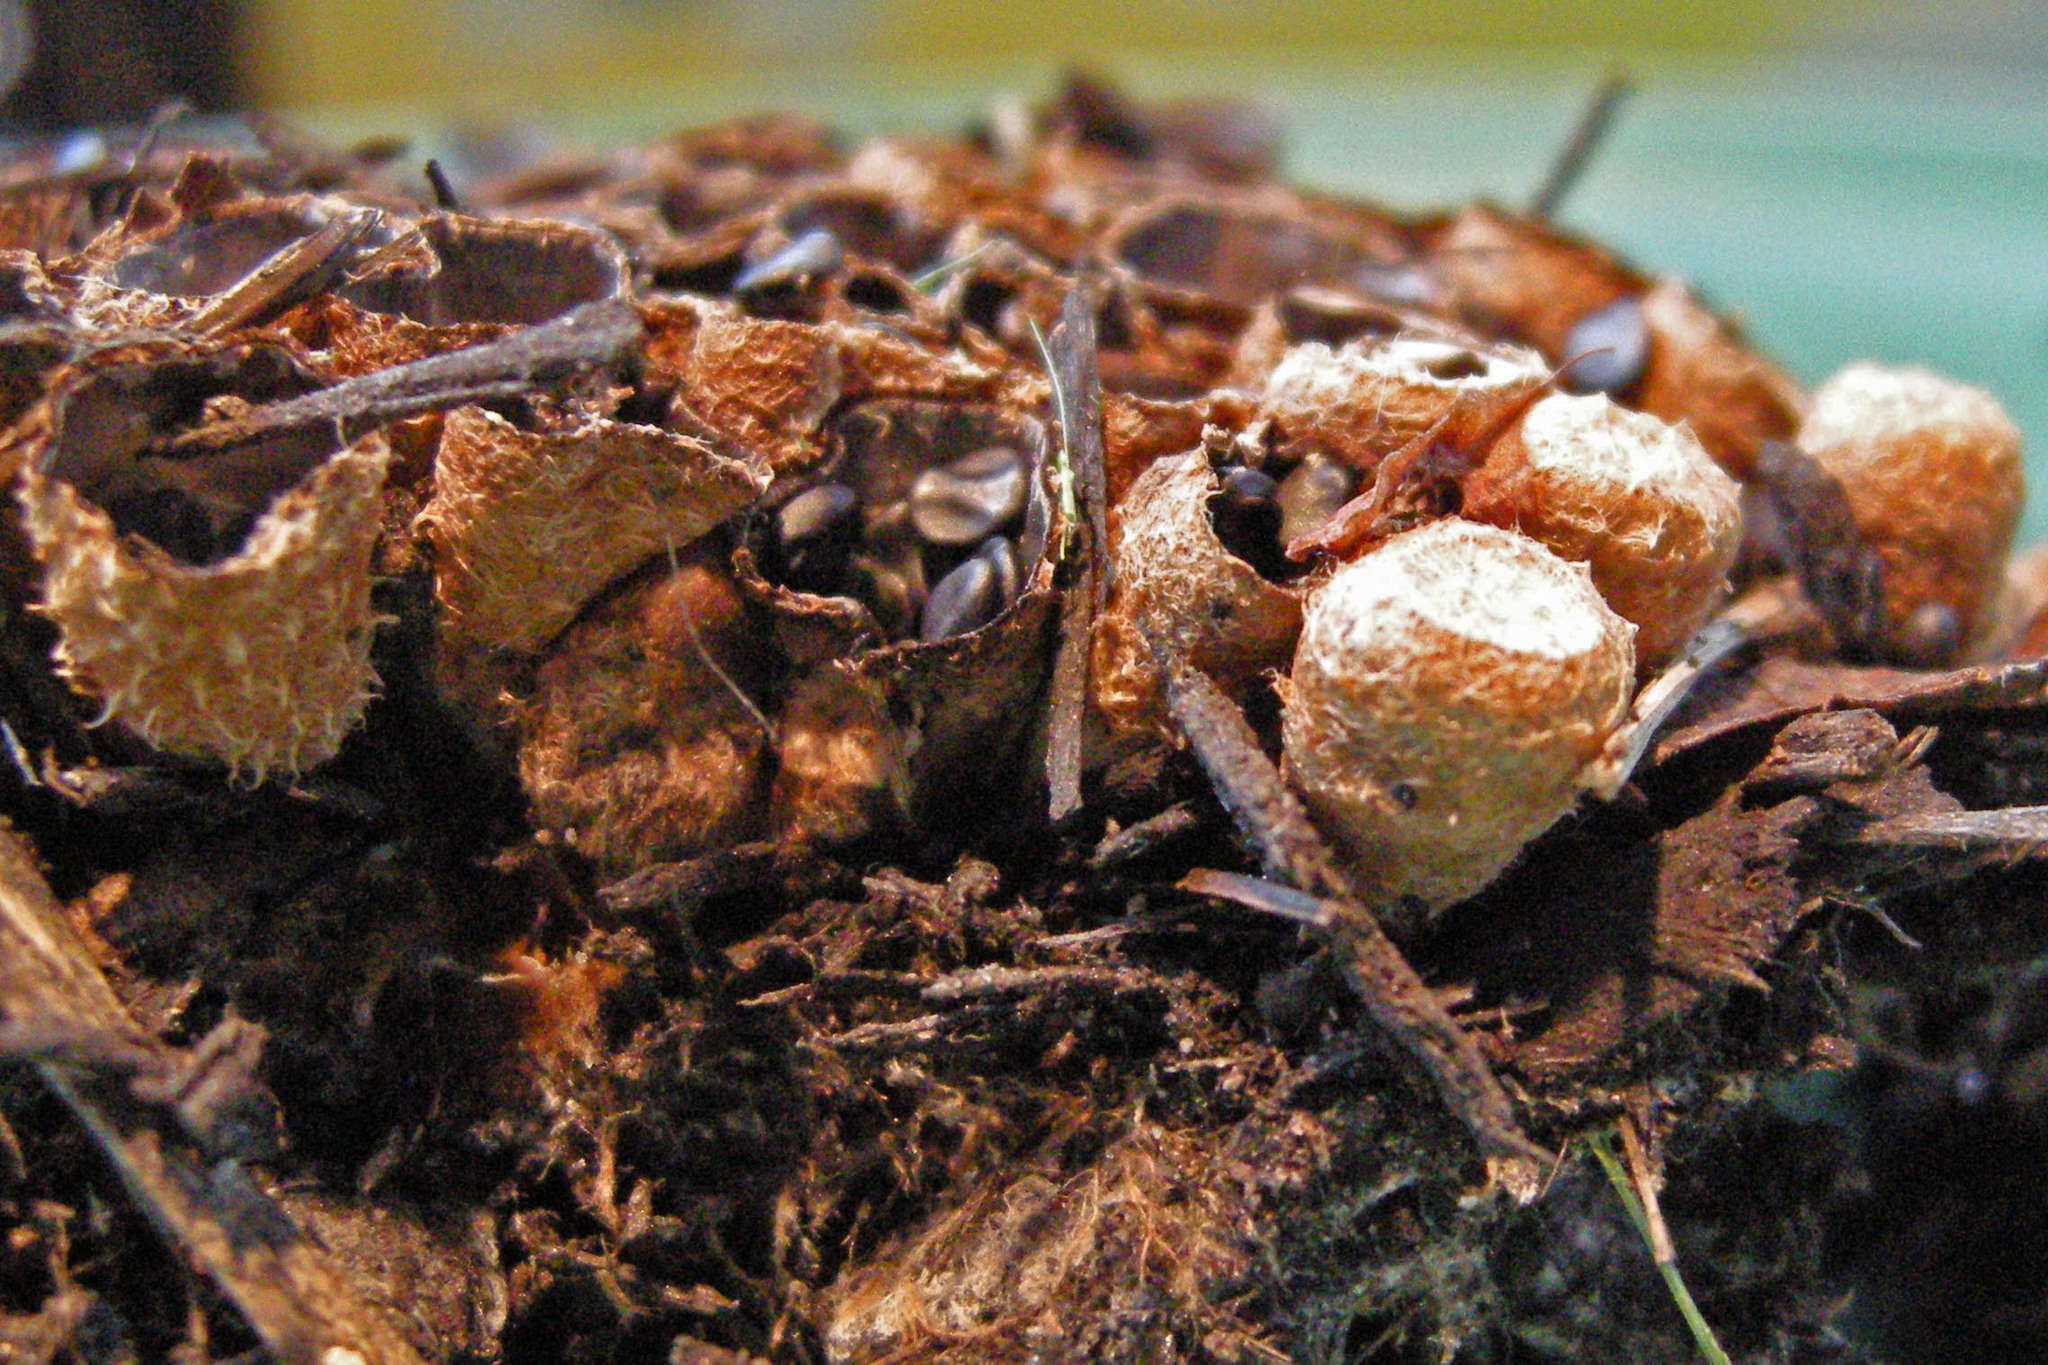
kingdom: Fungi
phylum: Basidiomycota
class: Agaricomycetes
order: Agaricales
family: Agaricaceae
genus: Cyathus
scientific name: Cyathus stercoreus
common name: Dung bird's nest
